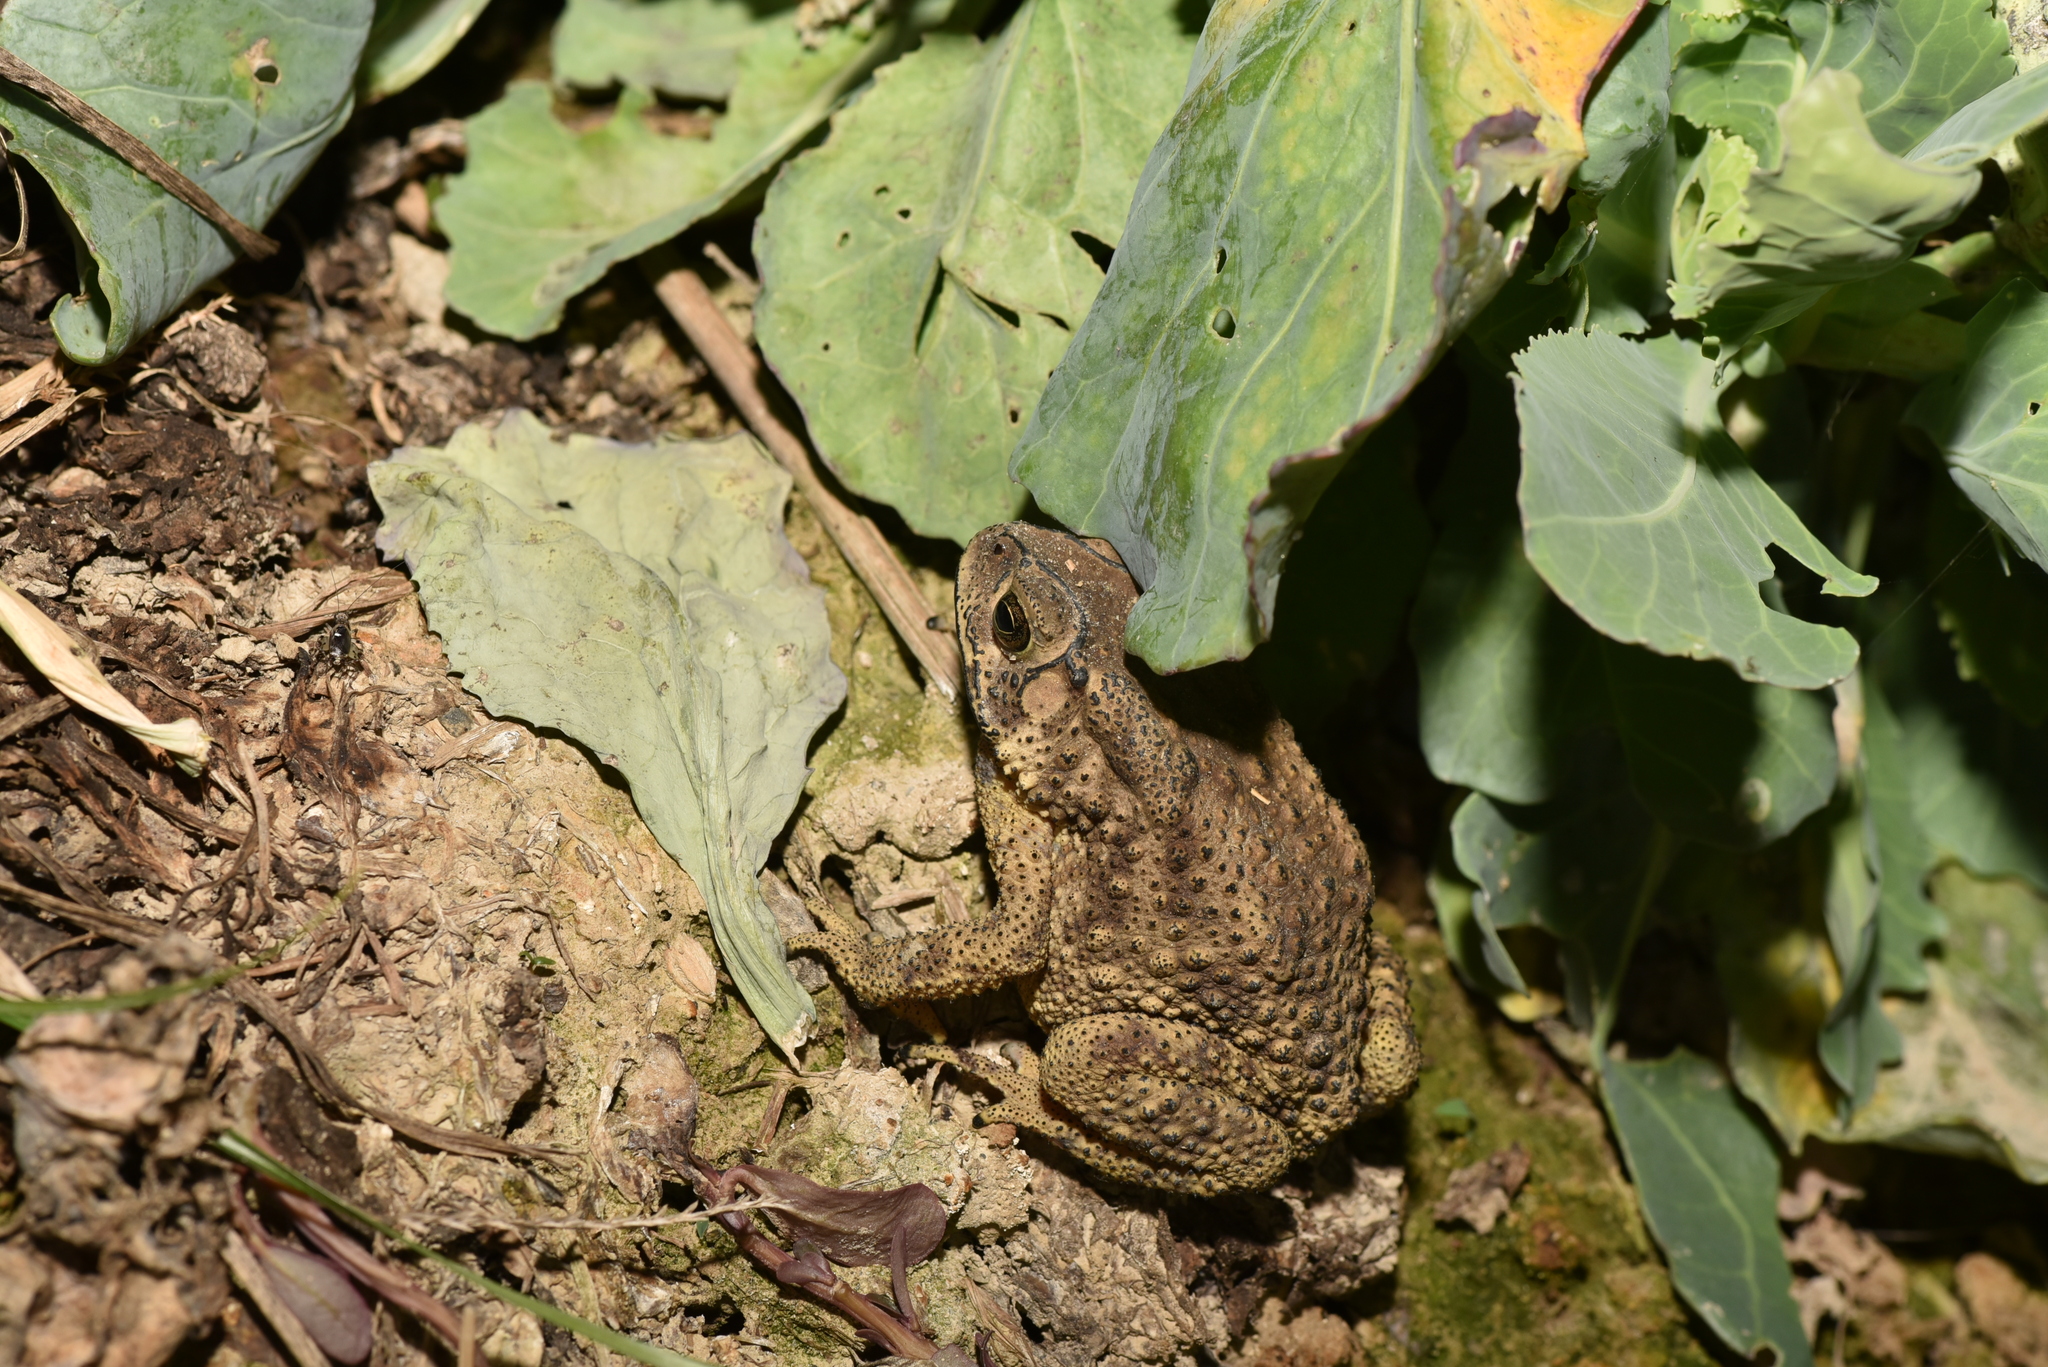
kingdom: Animalia
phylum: Chordata
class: Amphibia
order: Anura
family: Bufonidae
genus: Duttaphrynus
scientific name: Duttaphrynus melanostictus
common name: Common sunda toad
